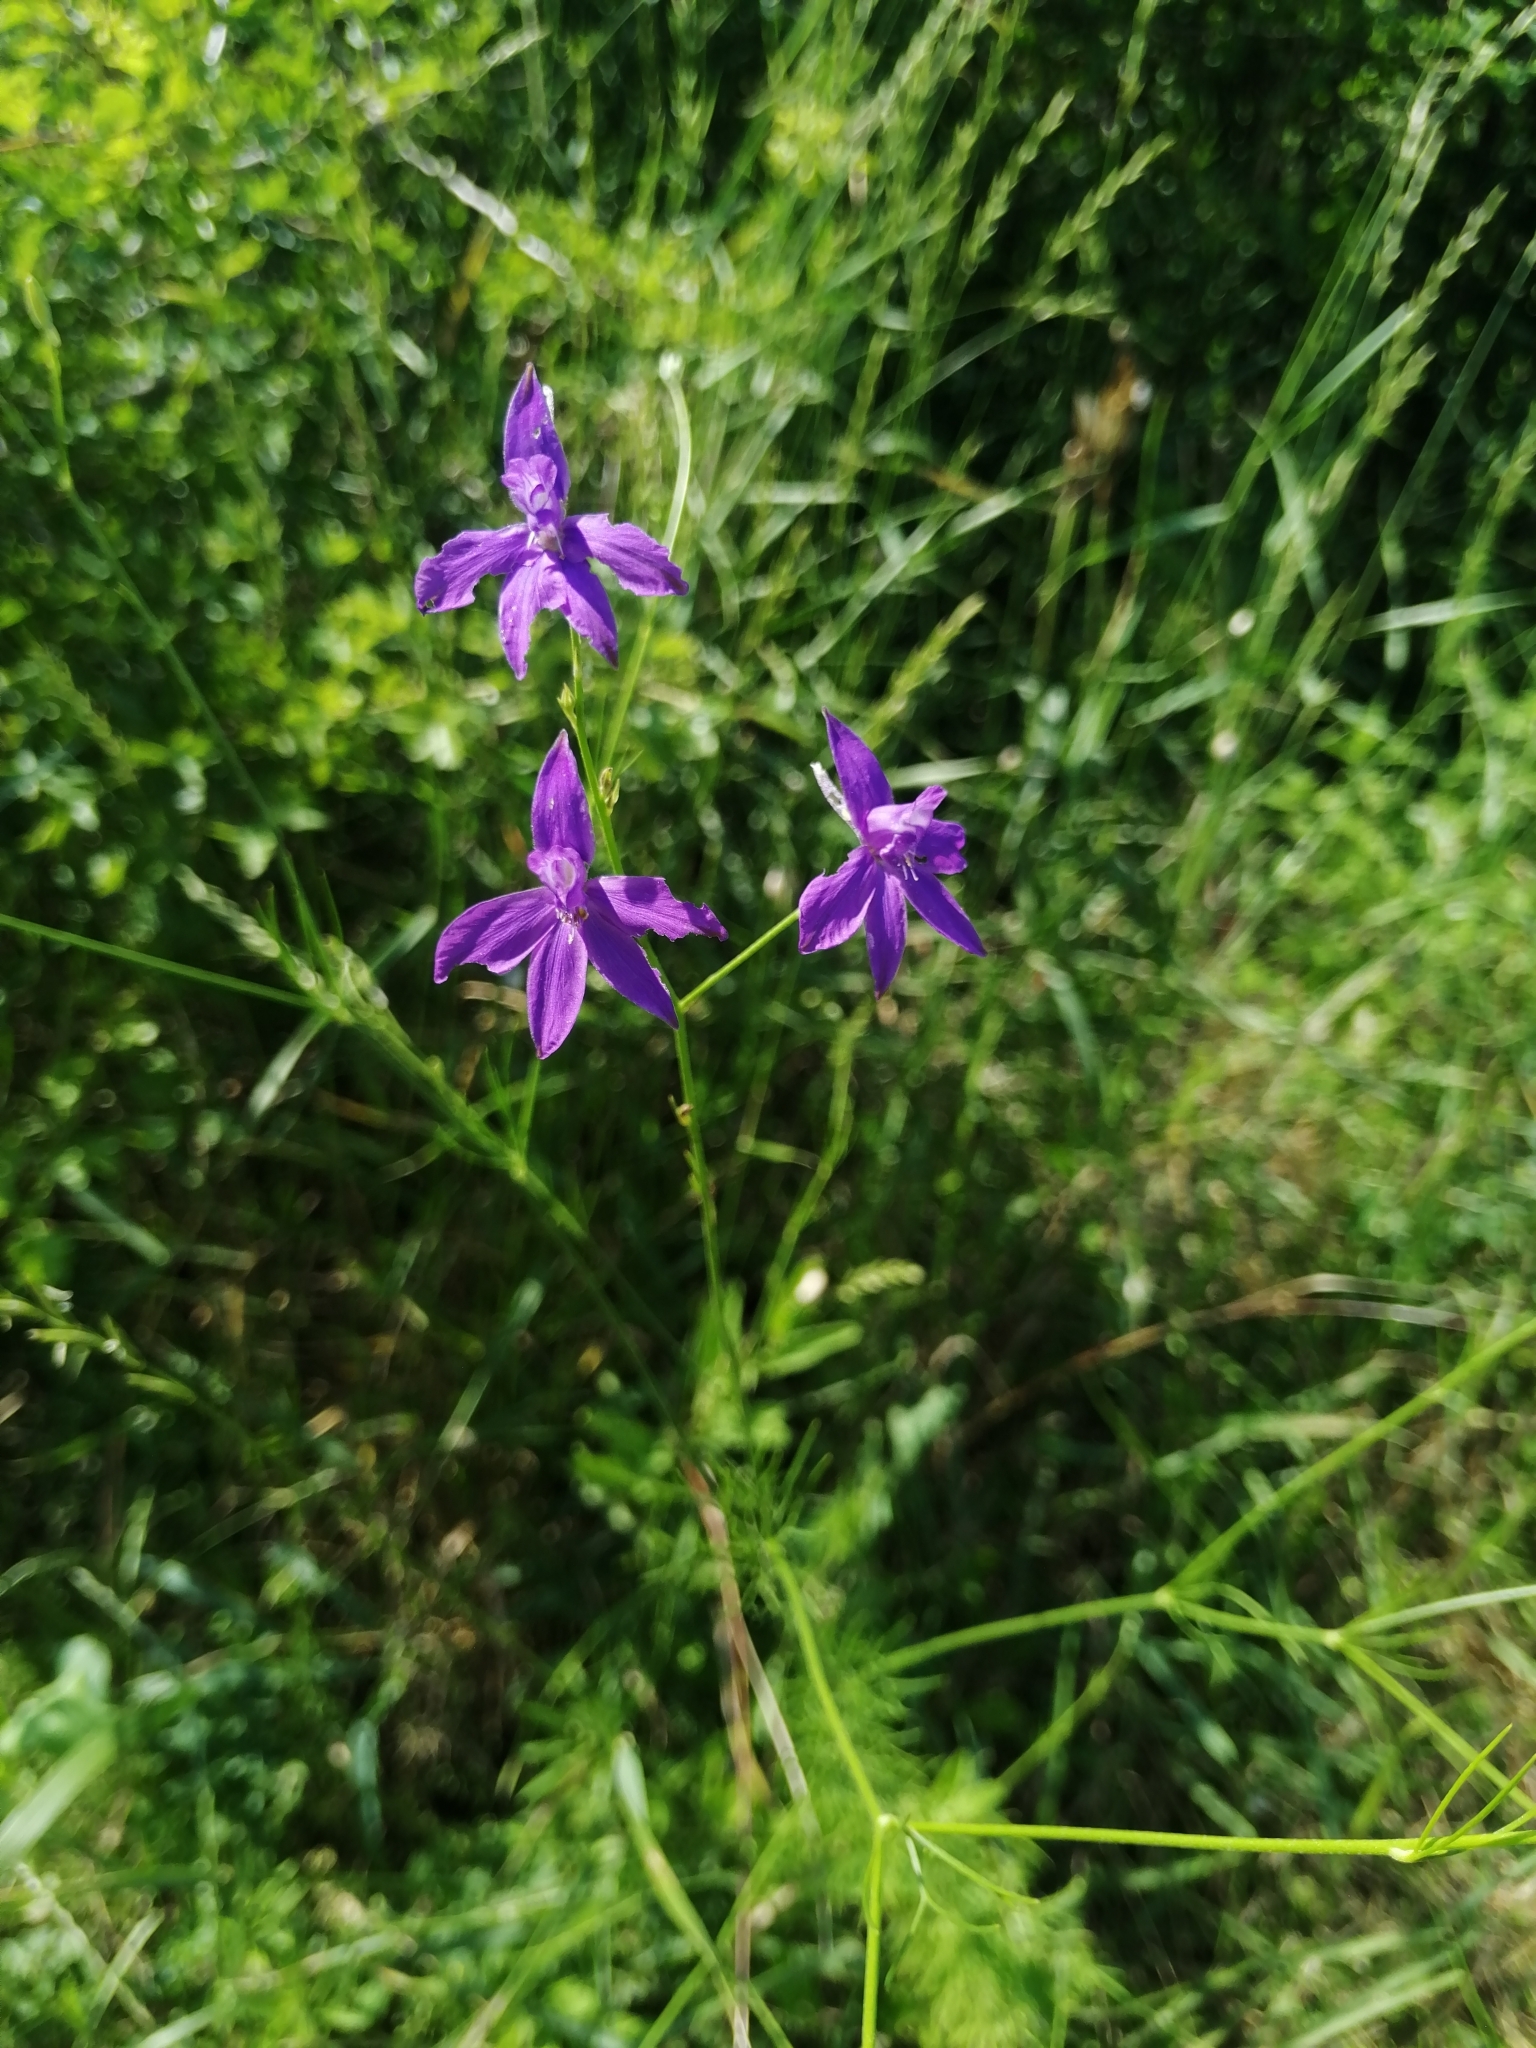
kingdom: Plantae
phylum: Tracheophyta
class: Magnoliopsida
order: Ranunculales
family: Ranunculaceae
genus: Delphinium
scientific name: Delphinium consolida
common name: Branching larkspur
